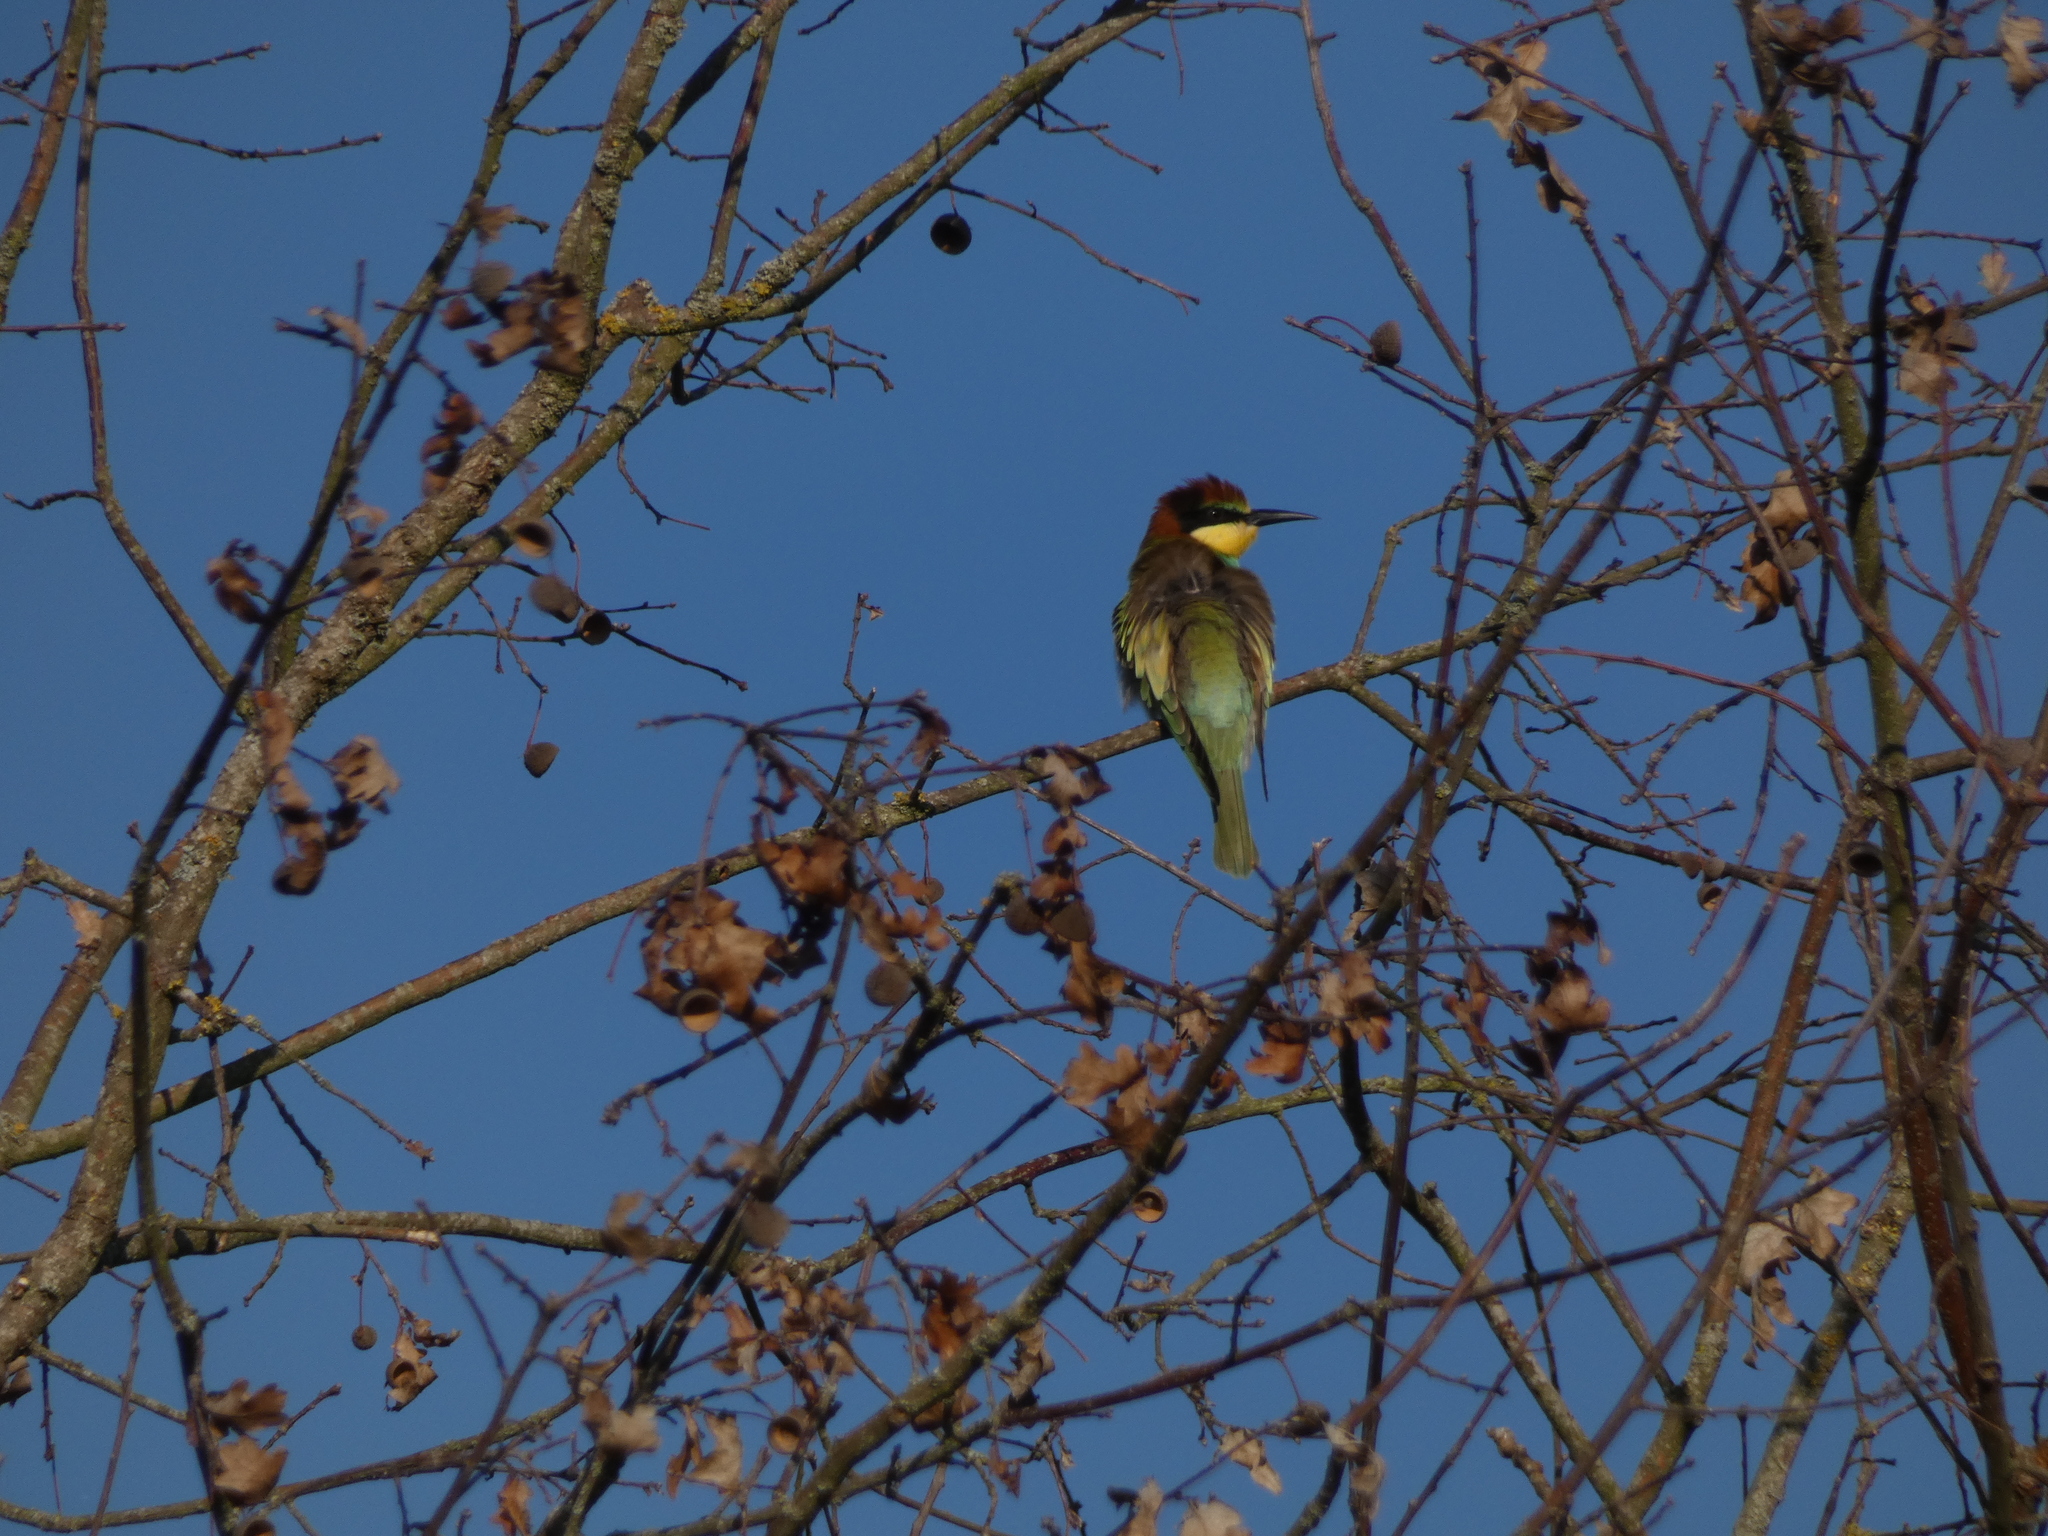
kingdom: Animalia
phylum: Chordata
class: Aves
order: Coraciiformes
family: Meropidae
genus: Merops
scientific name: Merops apiaster
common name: European bee-eater
